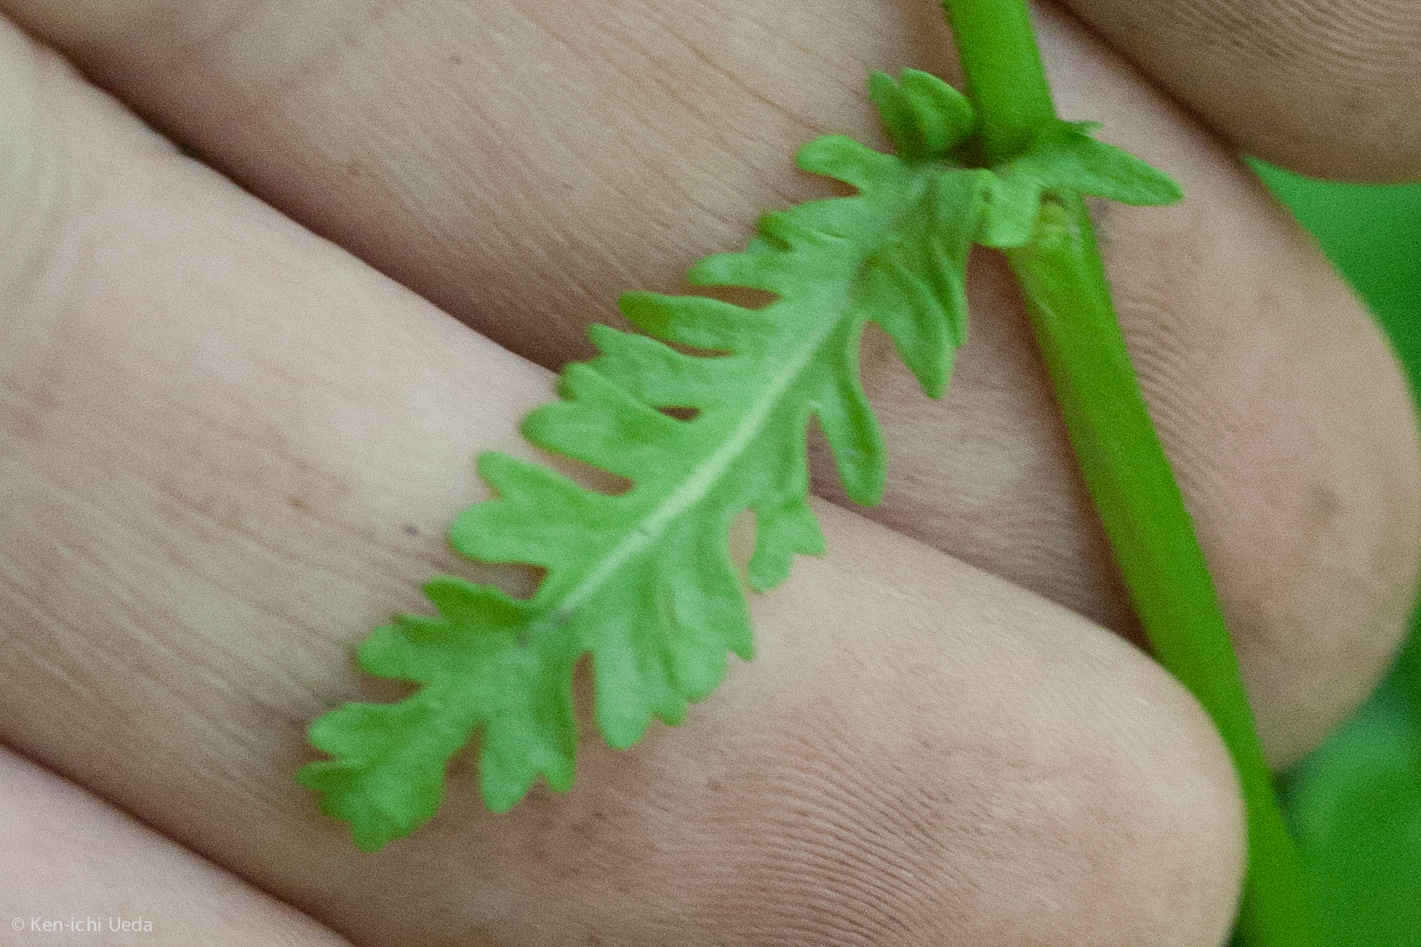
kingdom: Plantae
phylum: Tracheophyta
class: Magnoliopsida
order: Asterales
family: Asteraceae
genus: Packera
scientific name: Packera obovata
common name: Round-leaf ragwort
